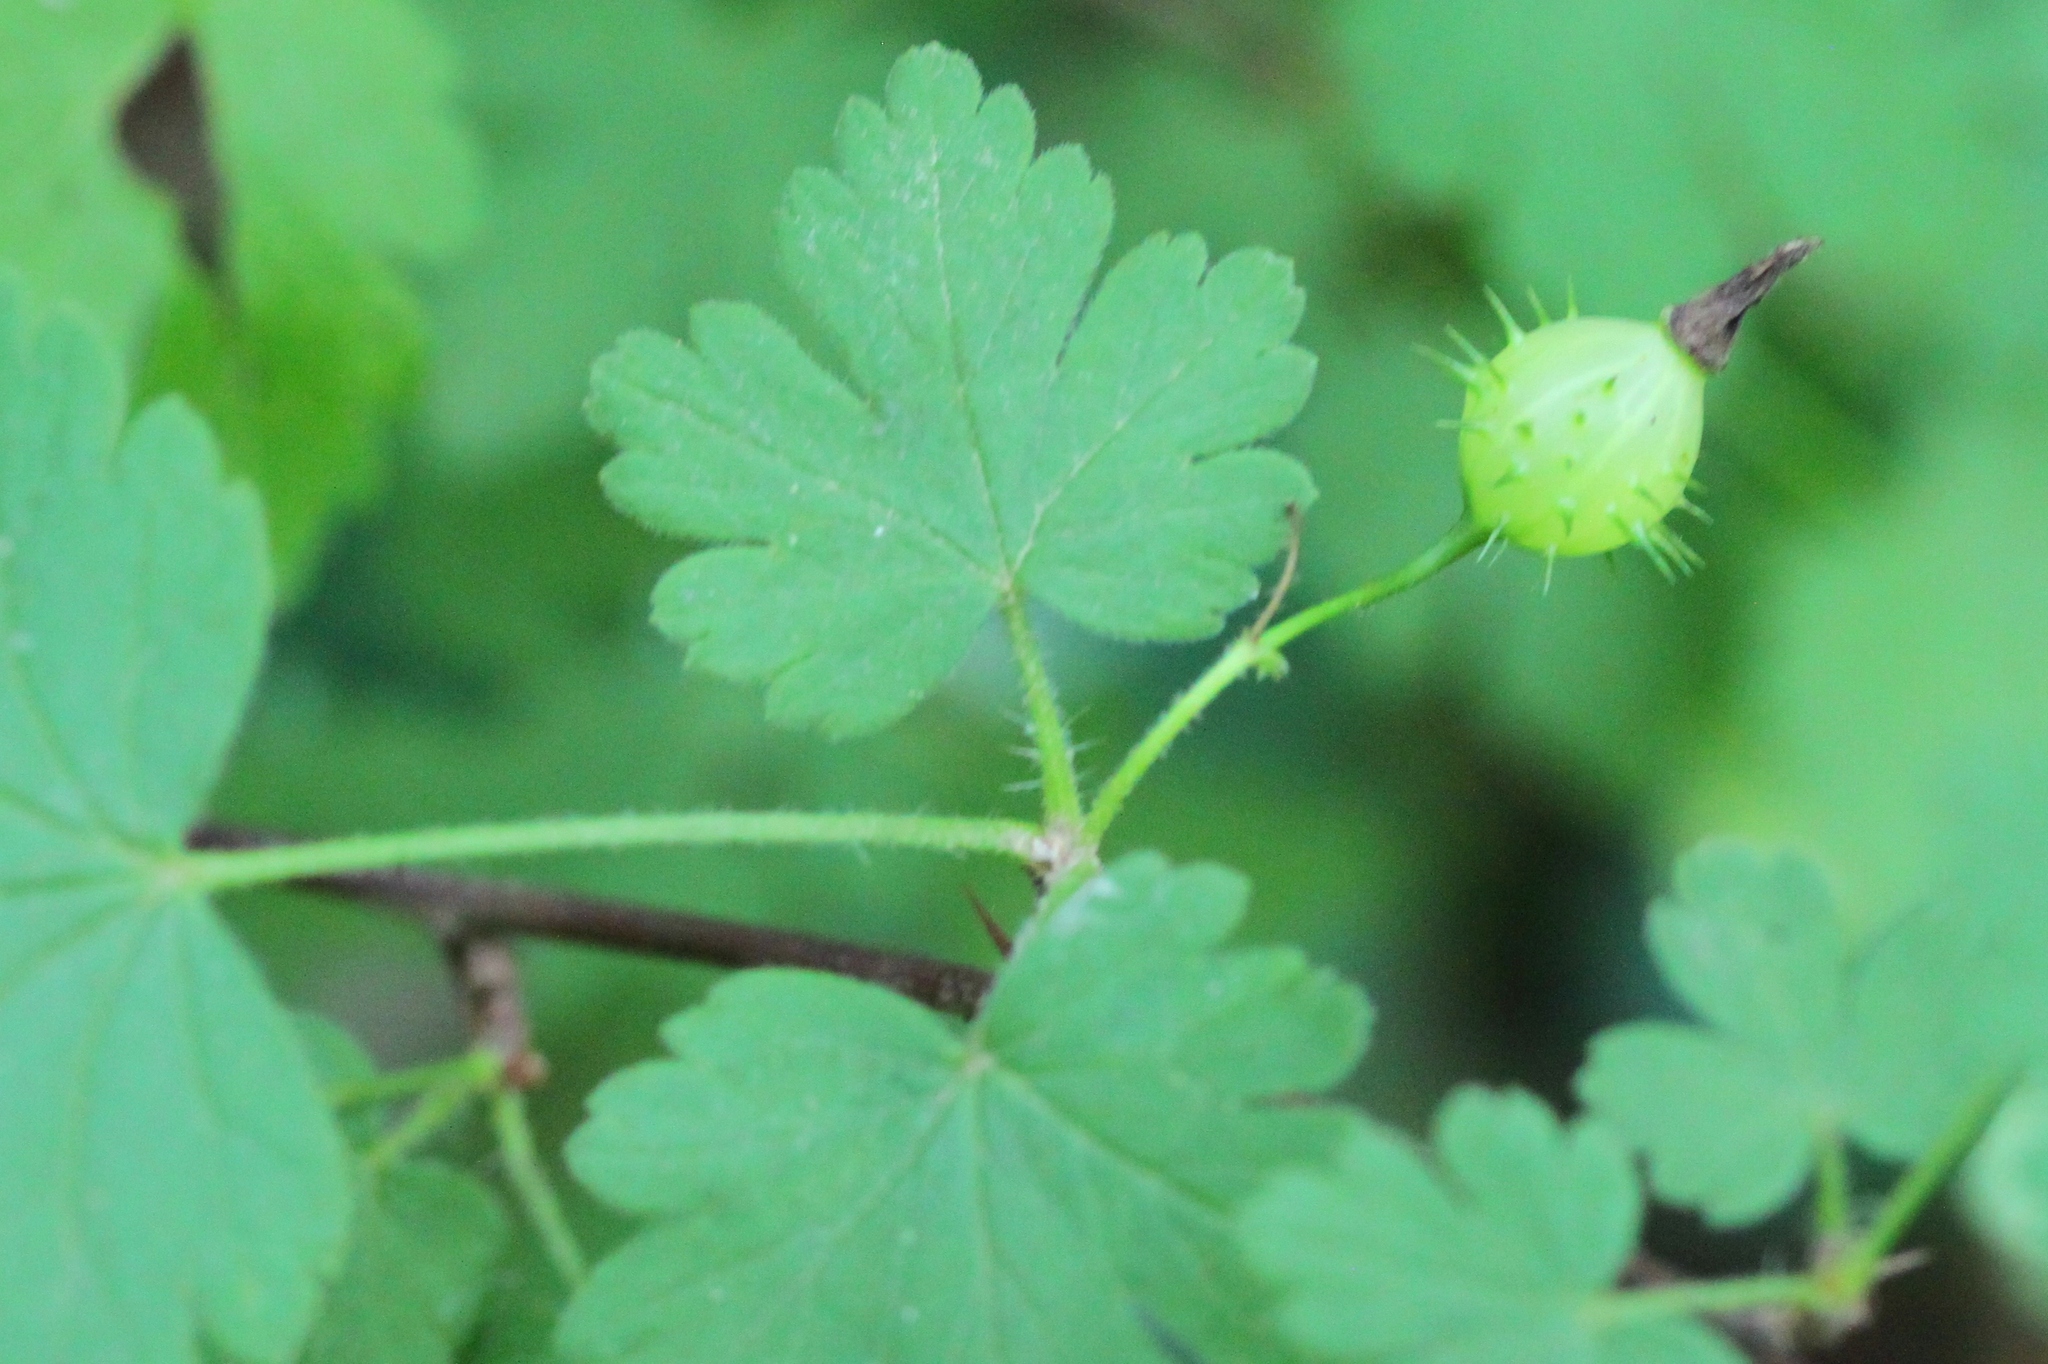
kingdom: Plantae
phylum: Tracheophyta
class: Magnoliopsida
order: Saxifragales
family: Grossulariaceae
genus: Ribes
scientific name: Ribes cynosbati
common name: American gooseberry
